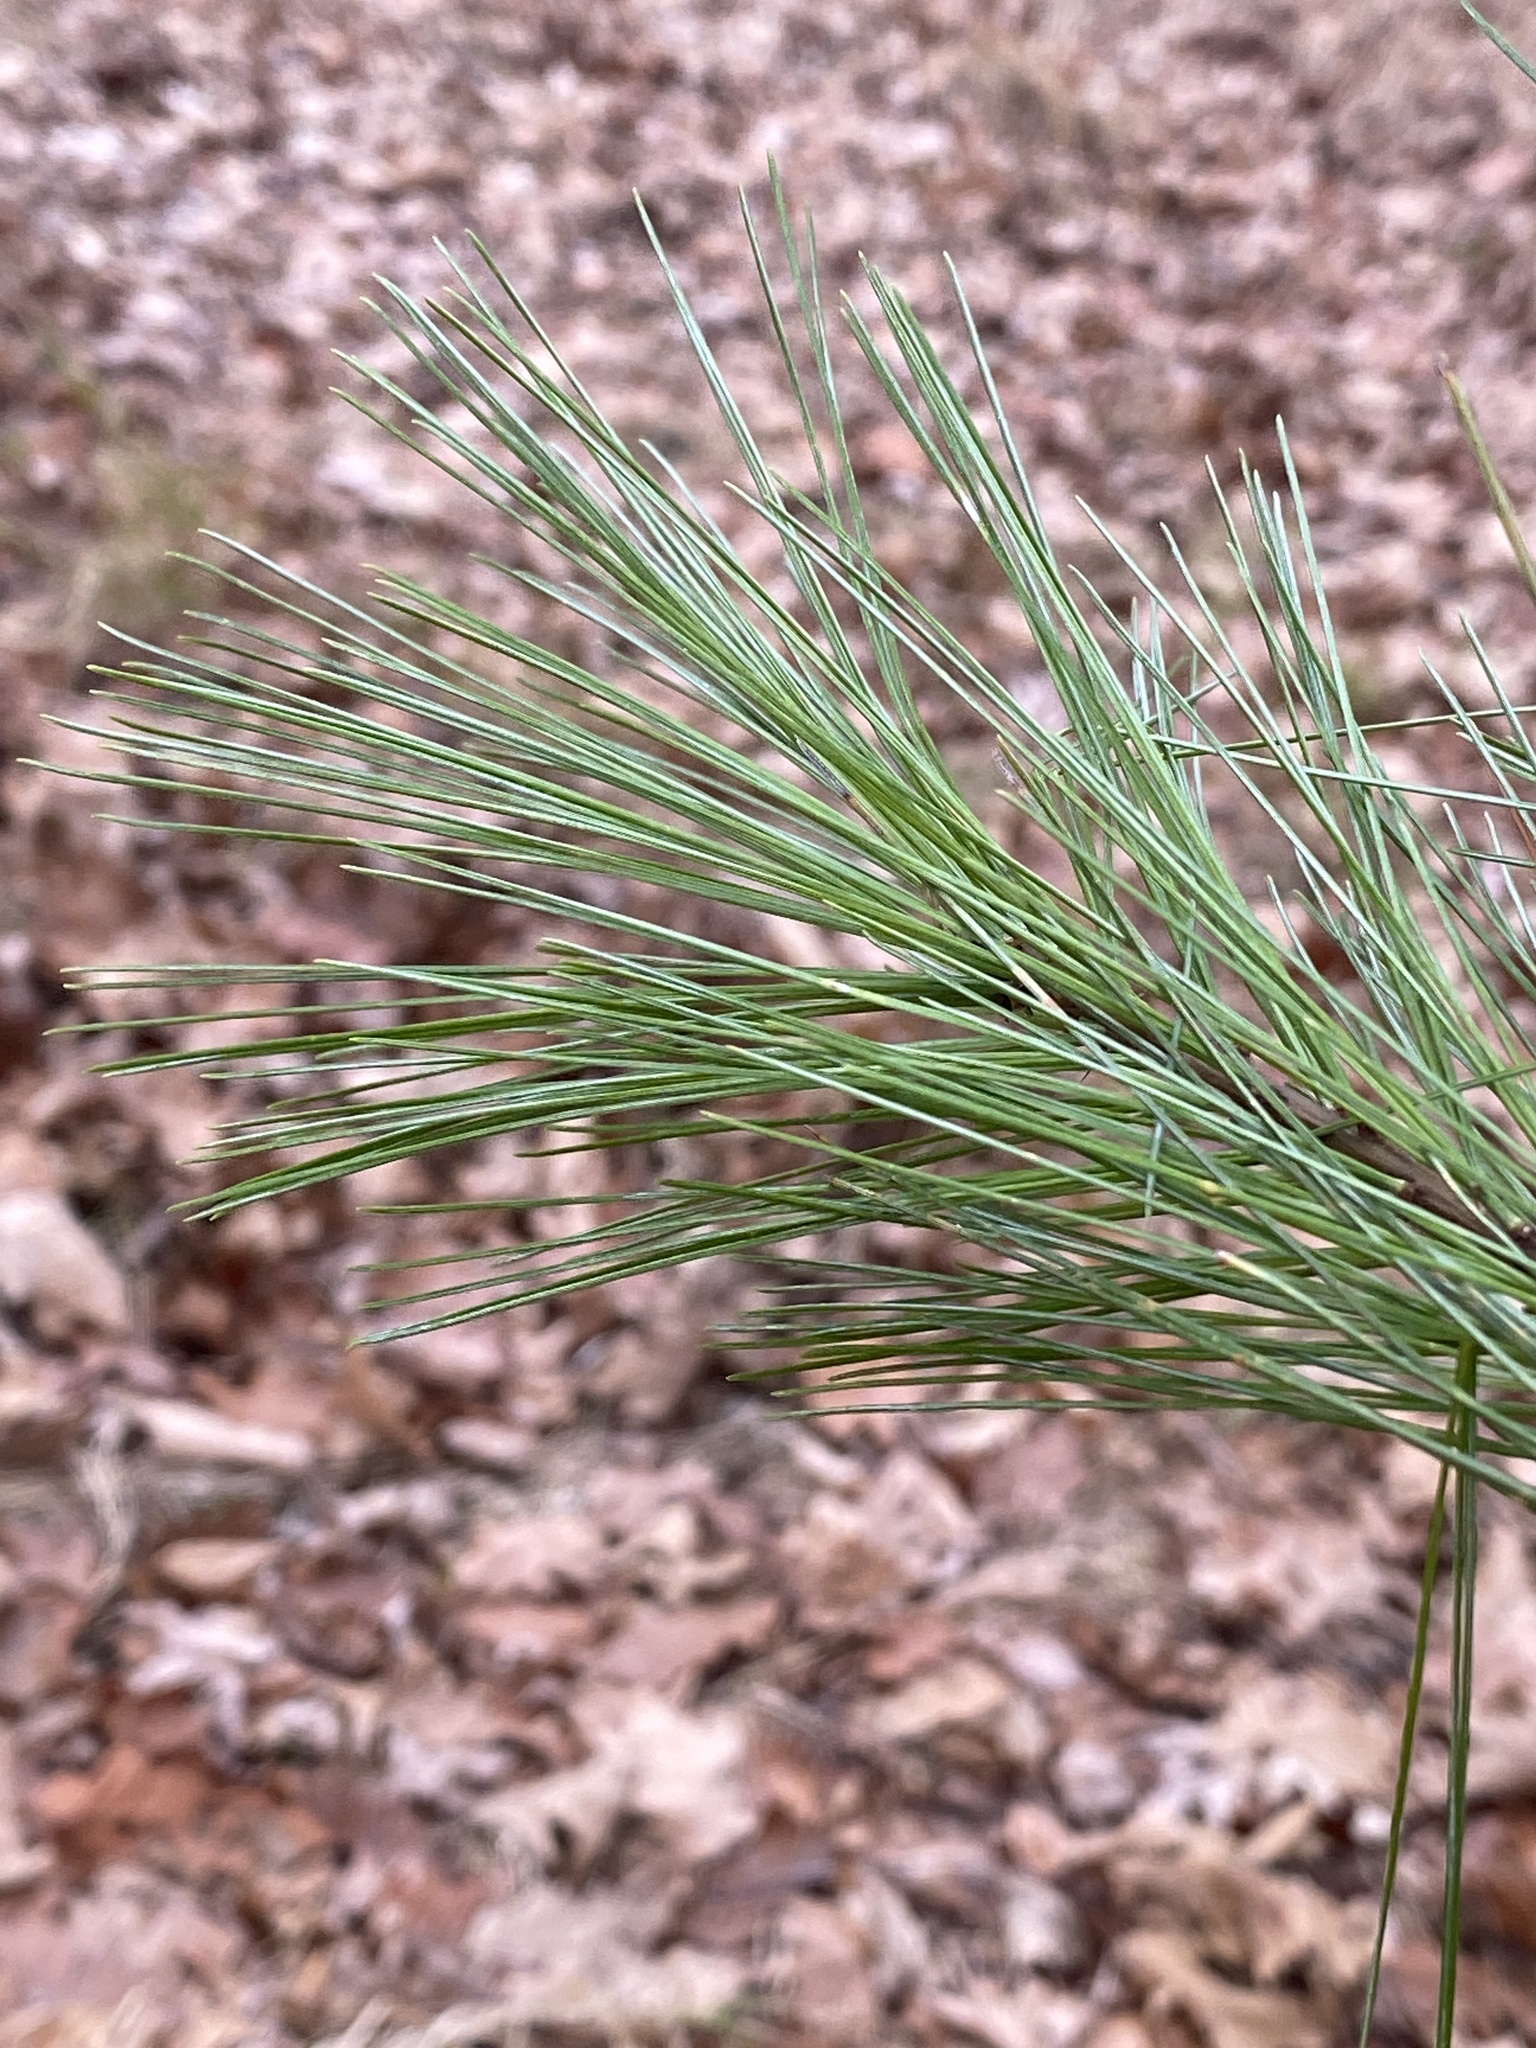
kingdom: Plantae
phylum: Tracheophyta
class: Pinopsida
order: Pinales
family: Pinaceae
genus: Pinus
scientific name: Pinus strobus
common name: Weymouth pine
